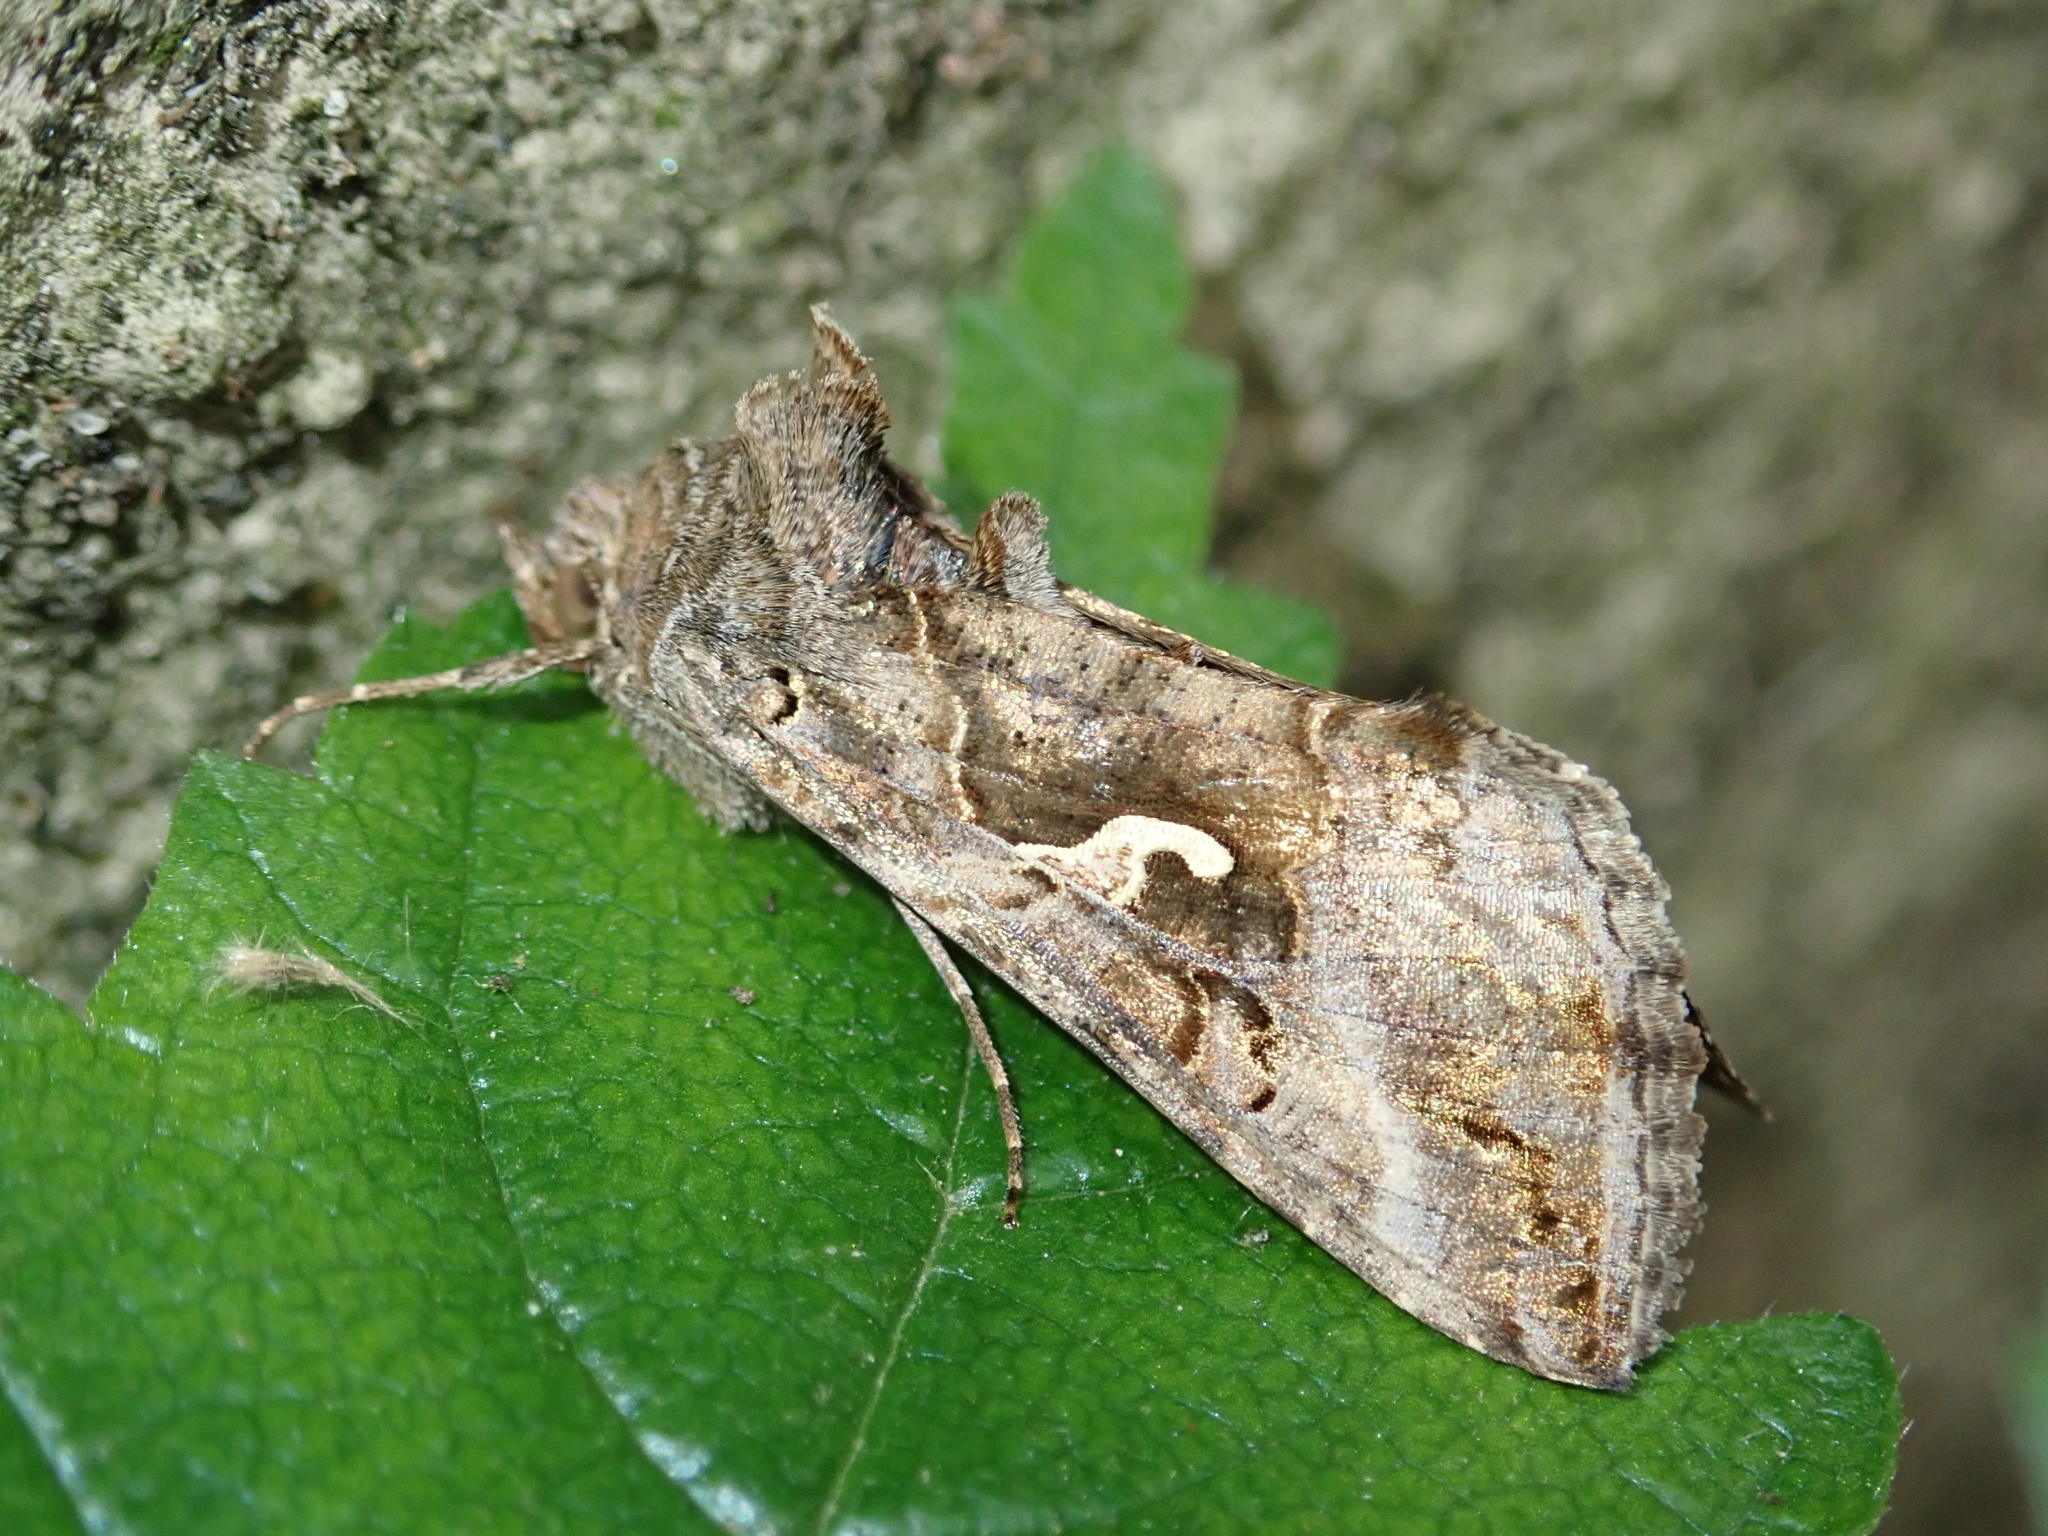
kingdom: Animalia
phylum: Arthropoda
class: Insecta
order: Lepidoptera
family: Noctuidae
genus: Autographa
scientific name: Autographa gamma
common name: Silver y
